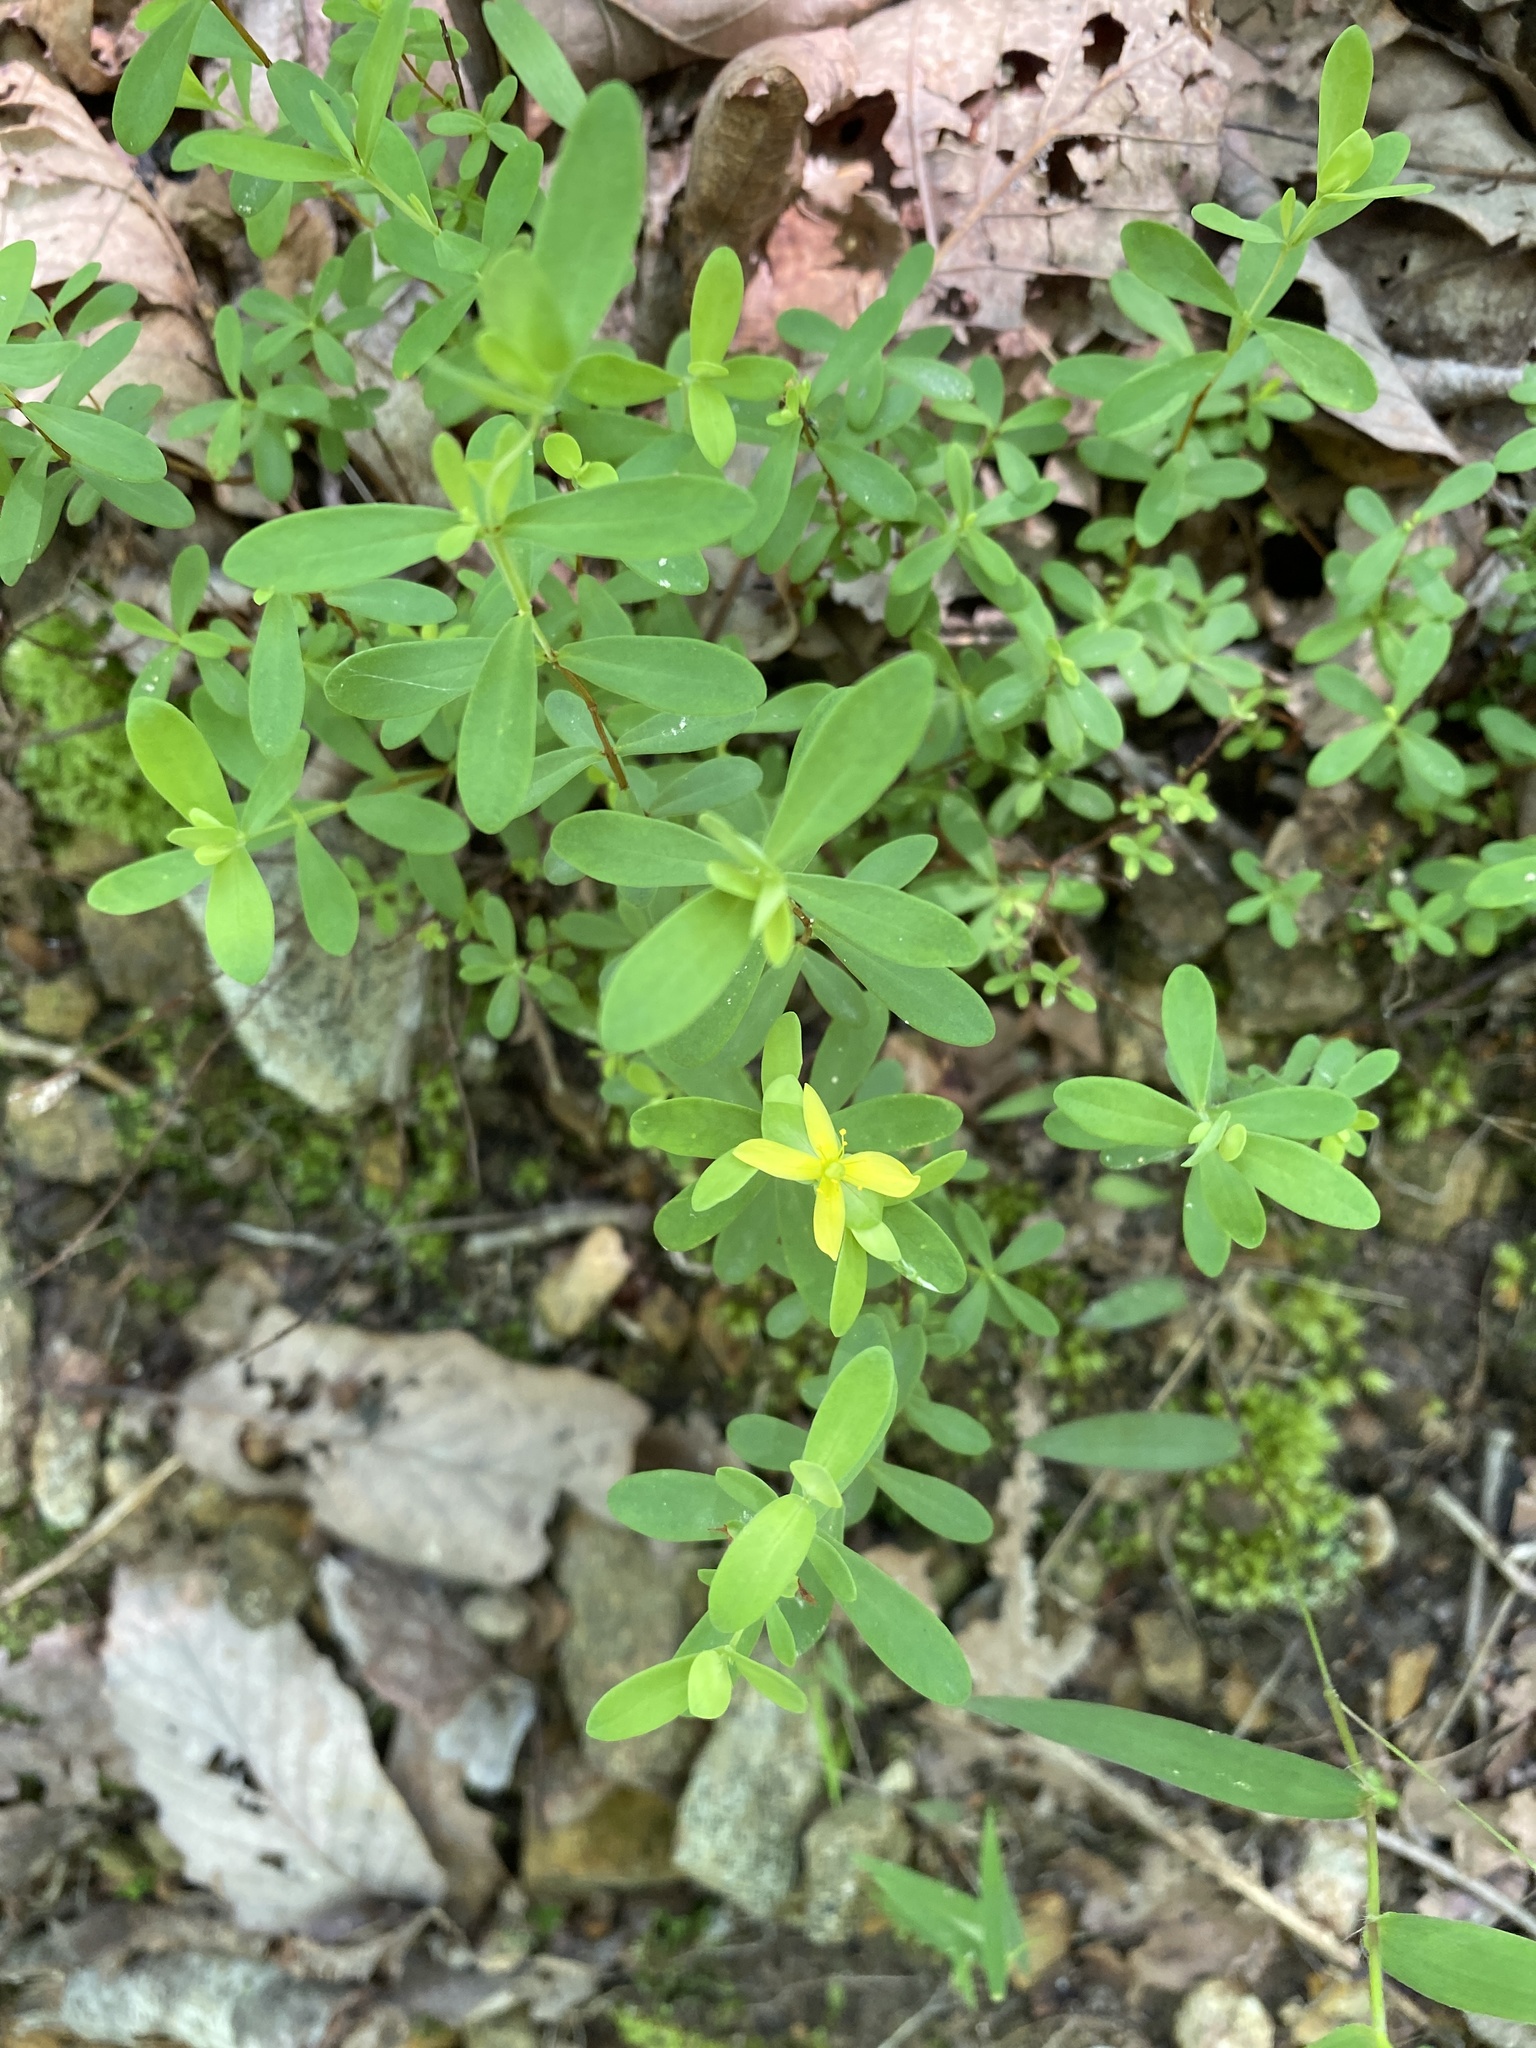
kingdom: Plantae
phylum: Tracheophyta
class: Magnoliopsida
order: Malpighiales
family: Hypericaceae
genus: Hypericum
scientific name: Hypericum hypericoides
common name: St. andrew's cross
